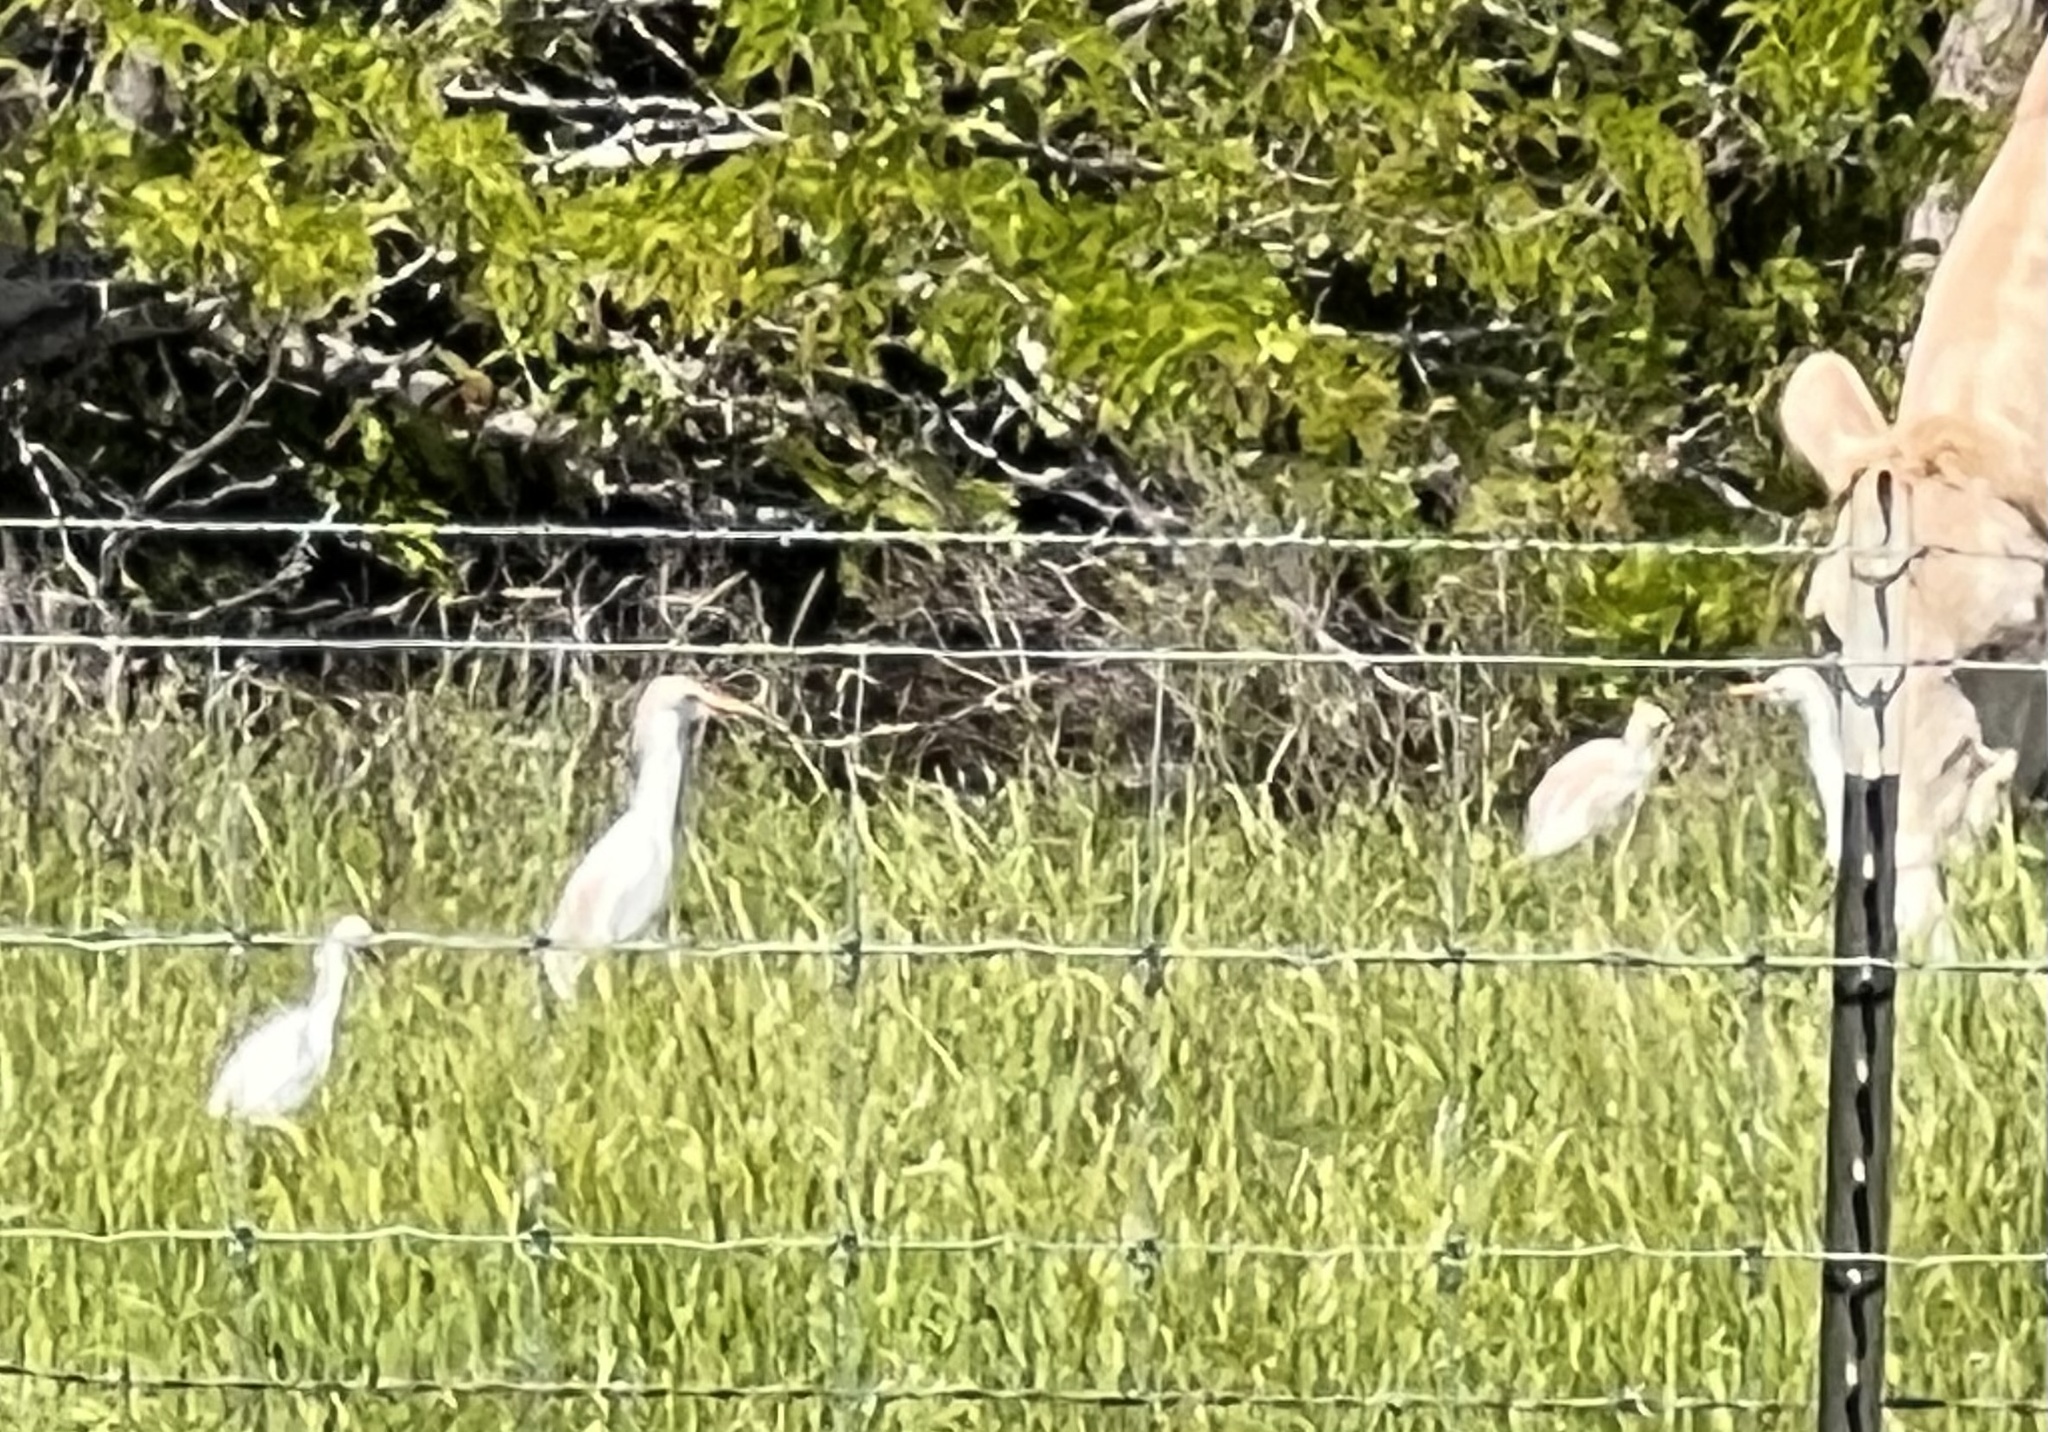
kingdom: Animalia
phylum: Chordata
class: Aves
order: Pelecaniformes
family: Ardeidae
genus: Bubulcus
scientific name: Bubulcus ibis
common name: Cattle egret
